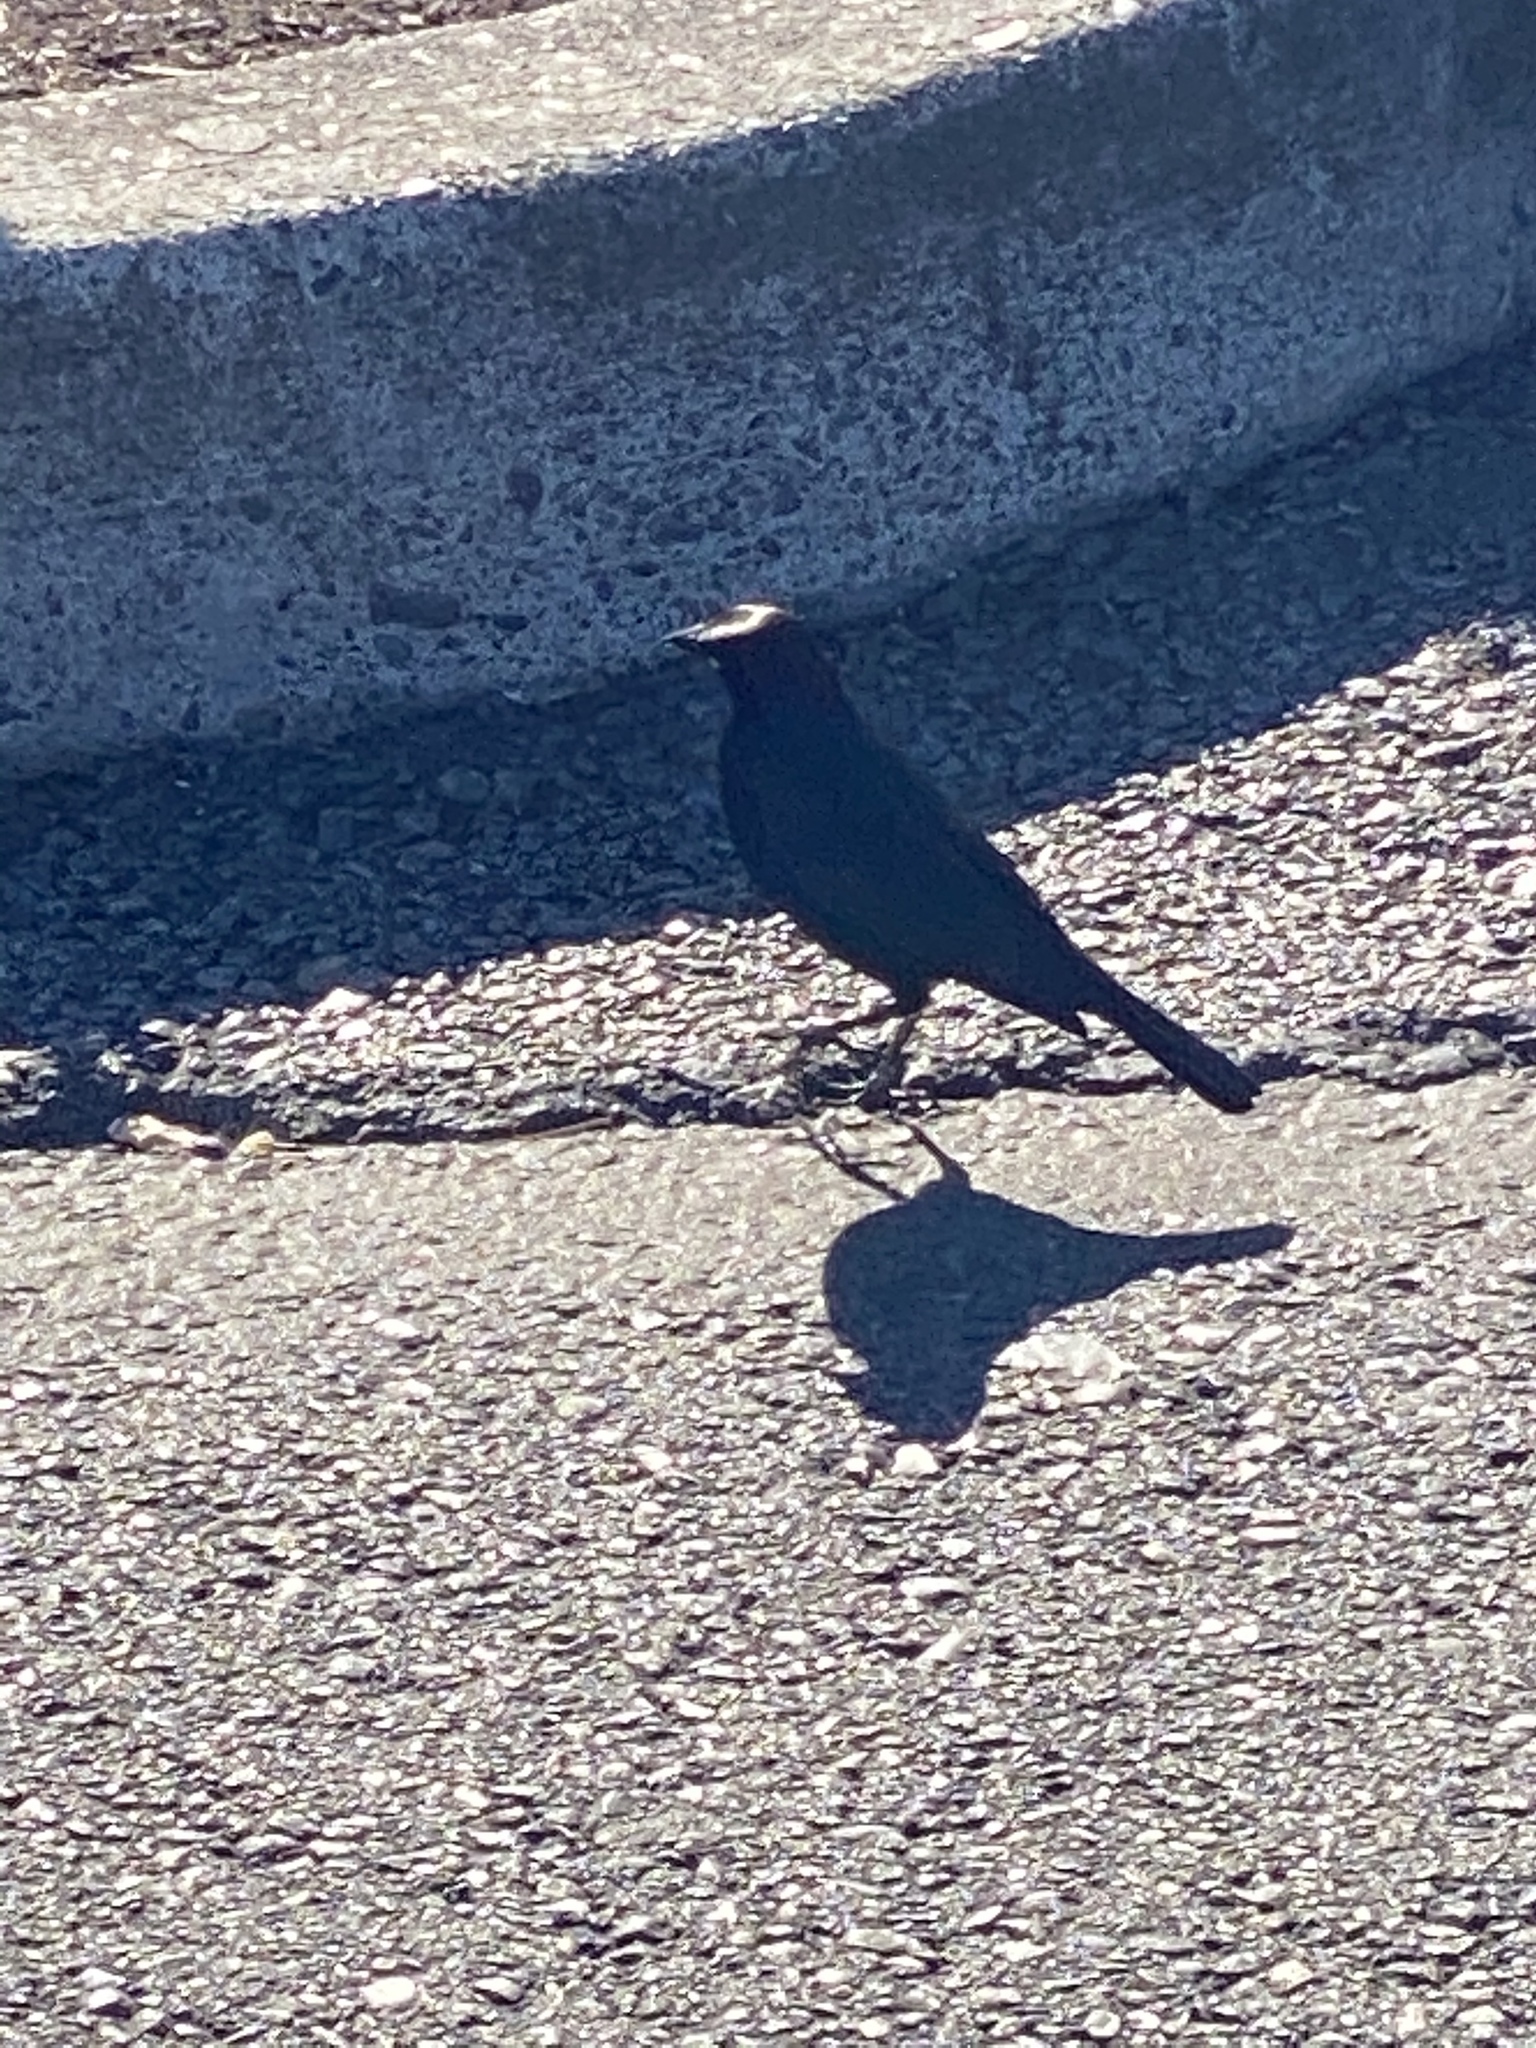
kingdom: Animalia
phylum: Chordata
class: Aves
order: Passeriformes
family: Icteridae
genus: Euphagus
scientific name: Euphagus cyanocephalus
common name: Brewer's blackbird
